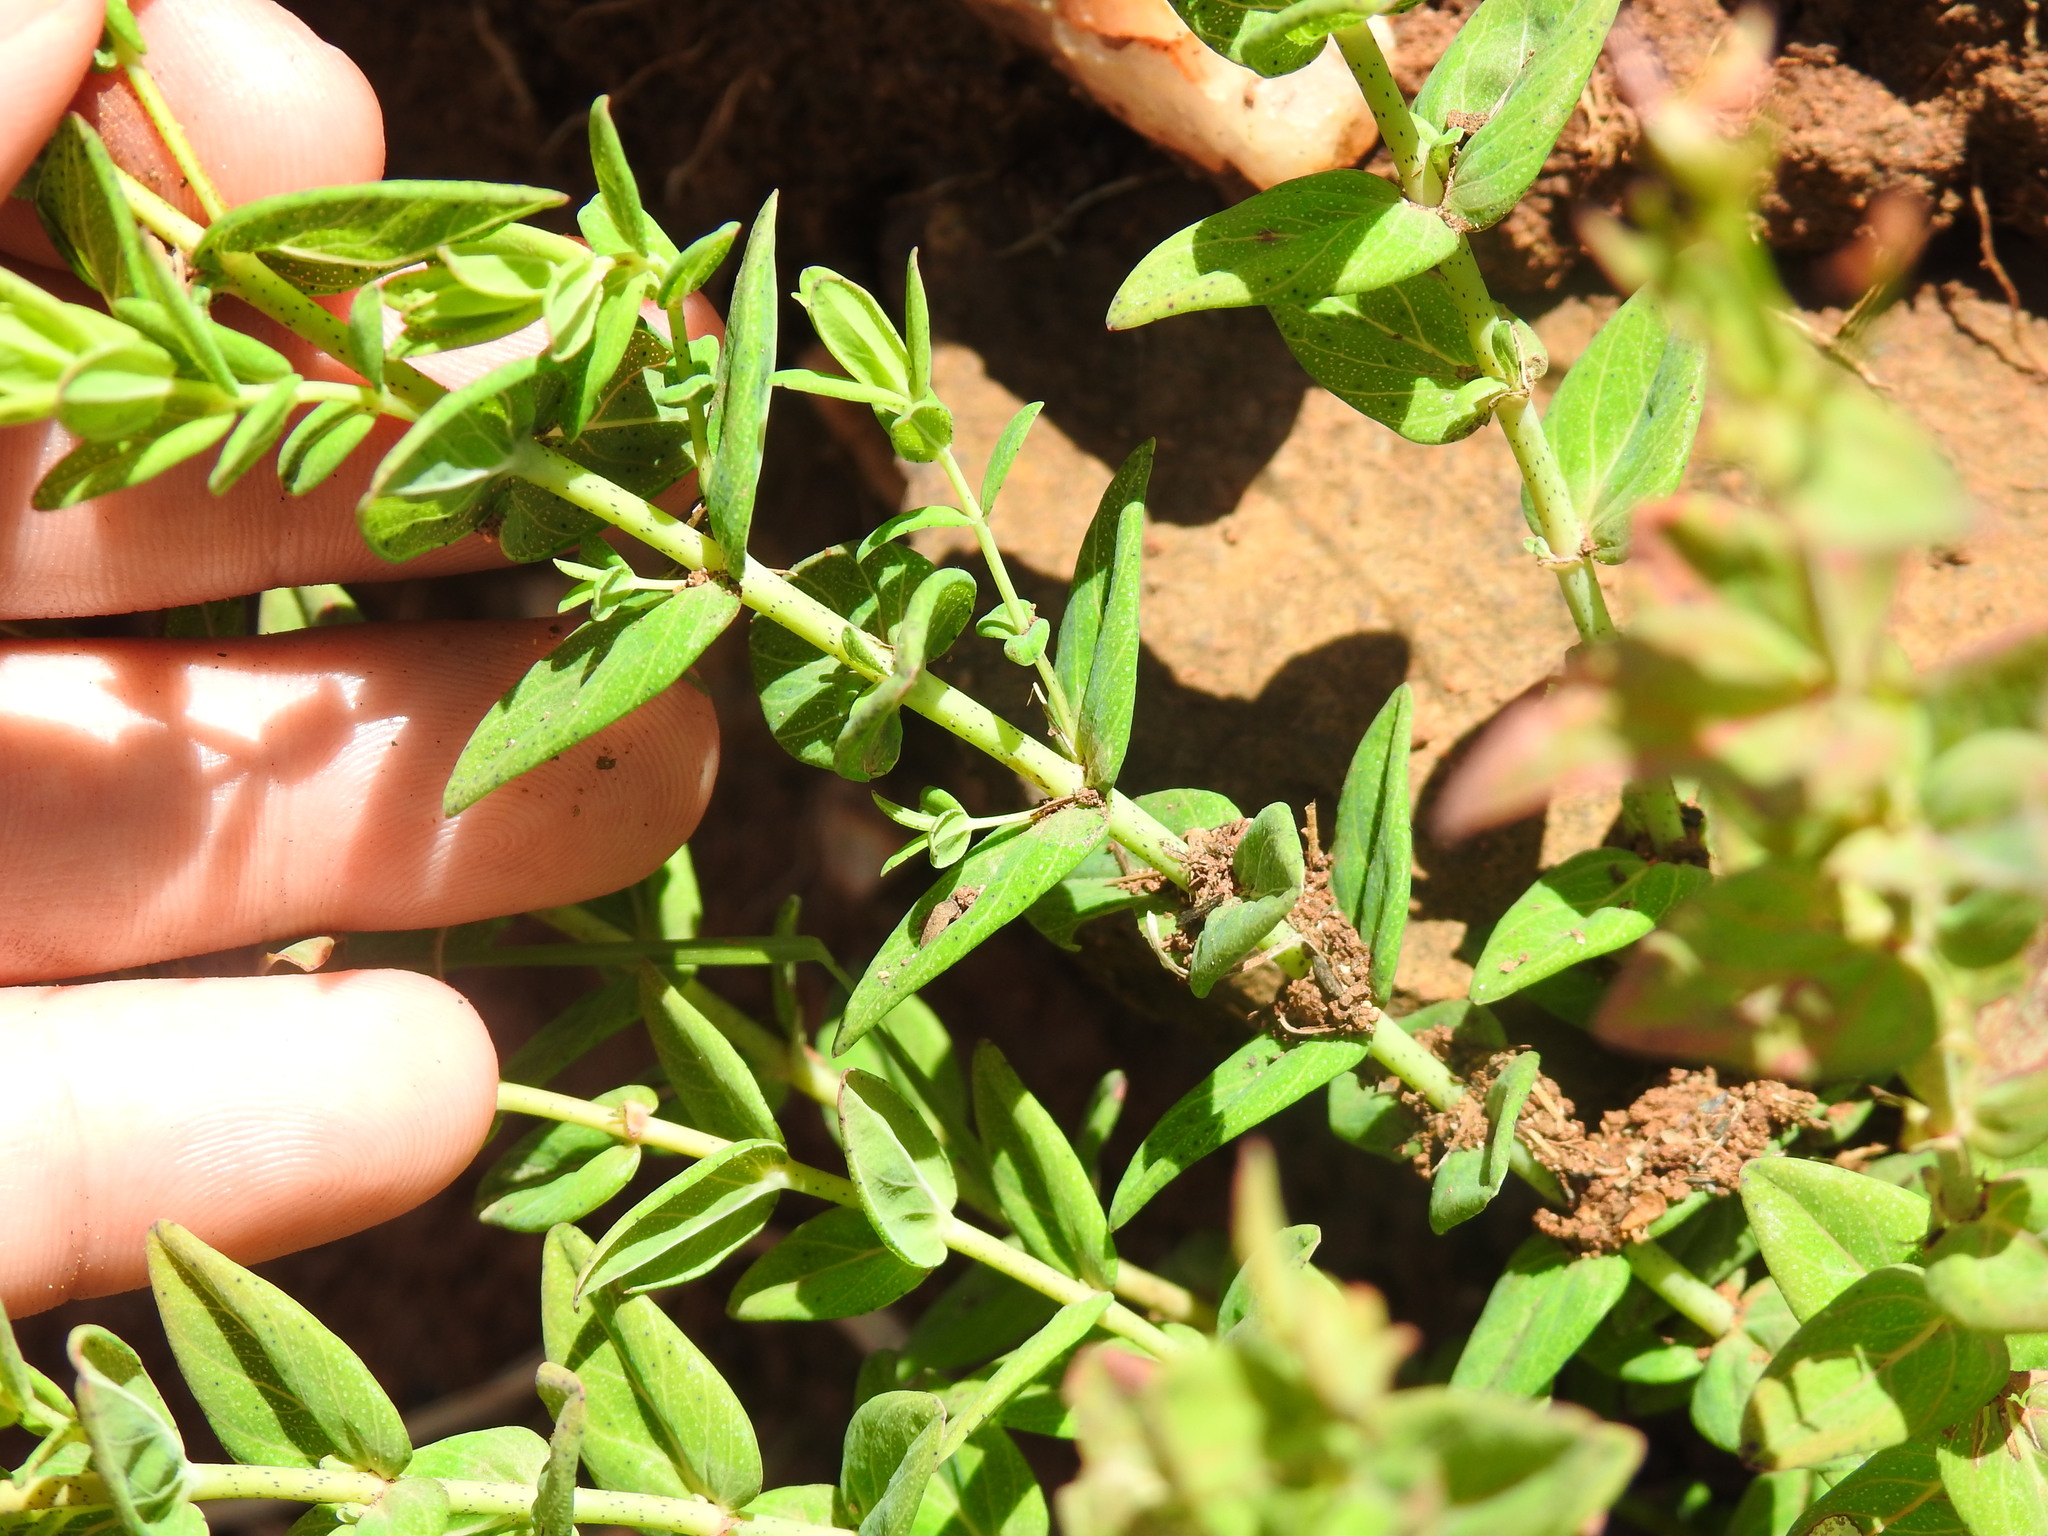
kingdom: Plantae
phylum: Tracheophyta
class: Magnoliopsida
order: Malpighiales
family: Hypericaceae
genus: Hypericum
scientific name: Hypericum aethiopicum
